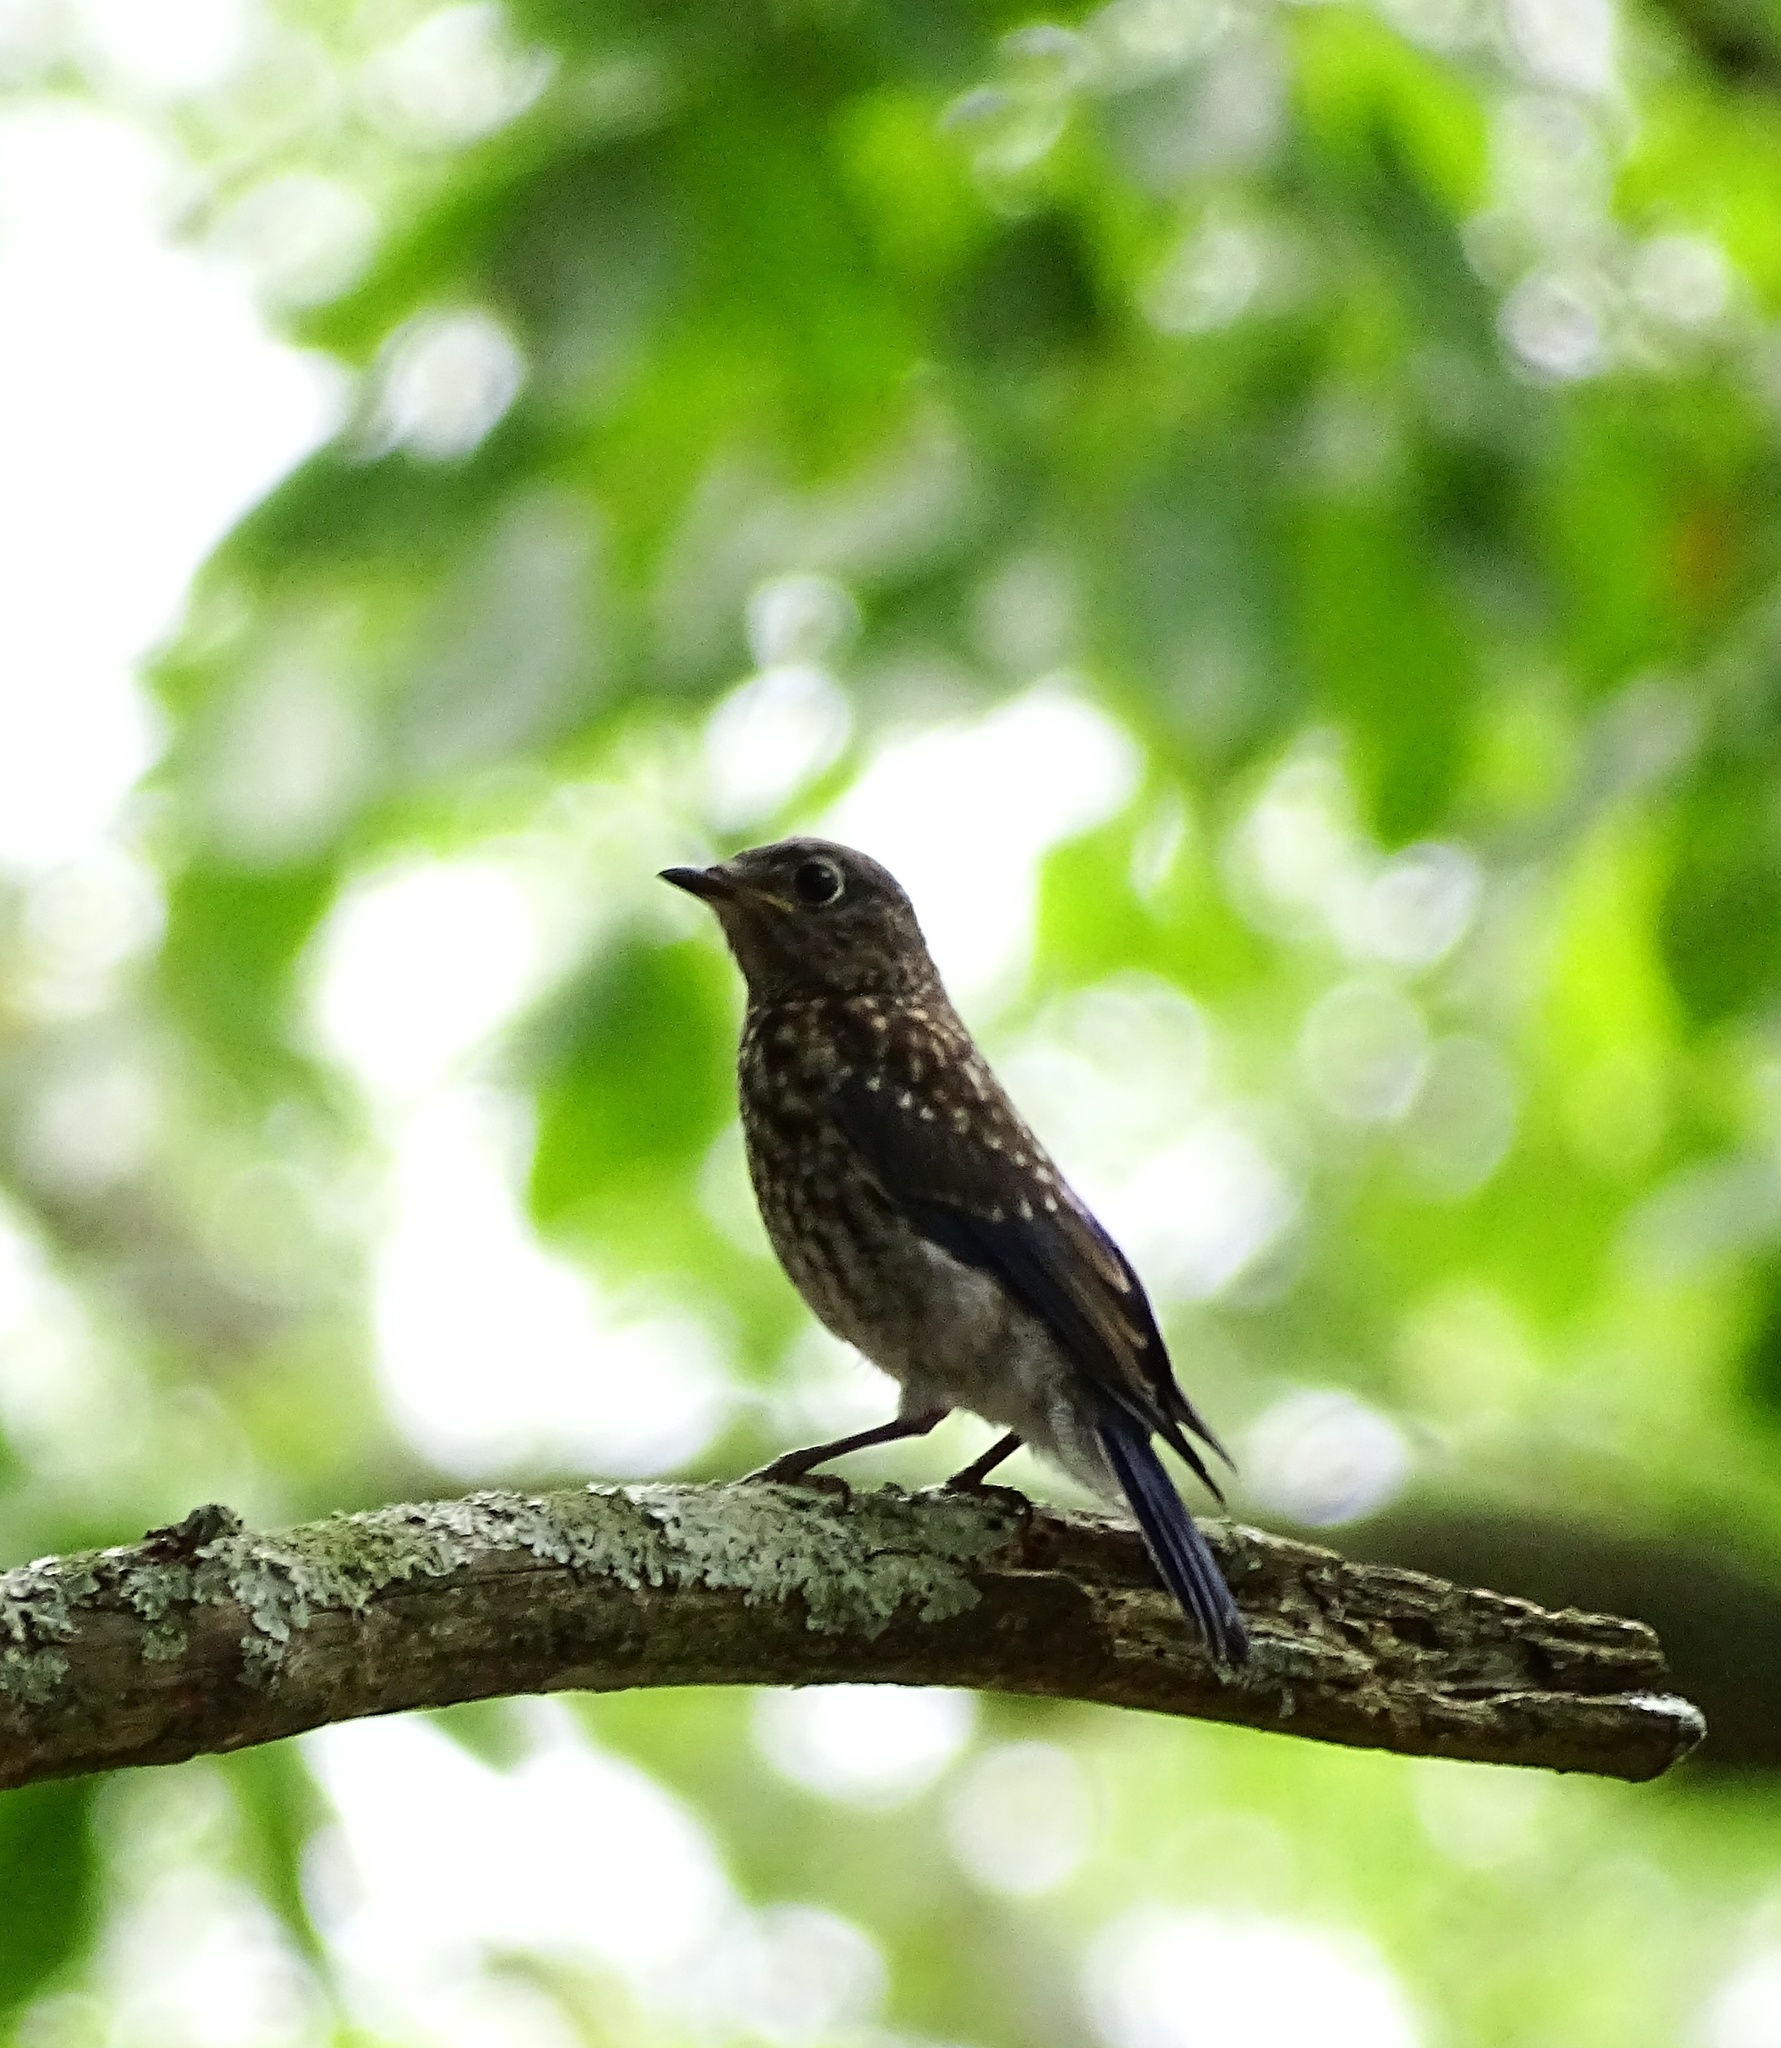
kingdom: Animalia
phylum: Chordata
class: Aves
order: Passeriformes
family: Turdidae
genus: Sialia
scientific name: Sialia sialis
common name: Eastern bluebird
